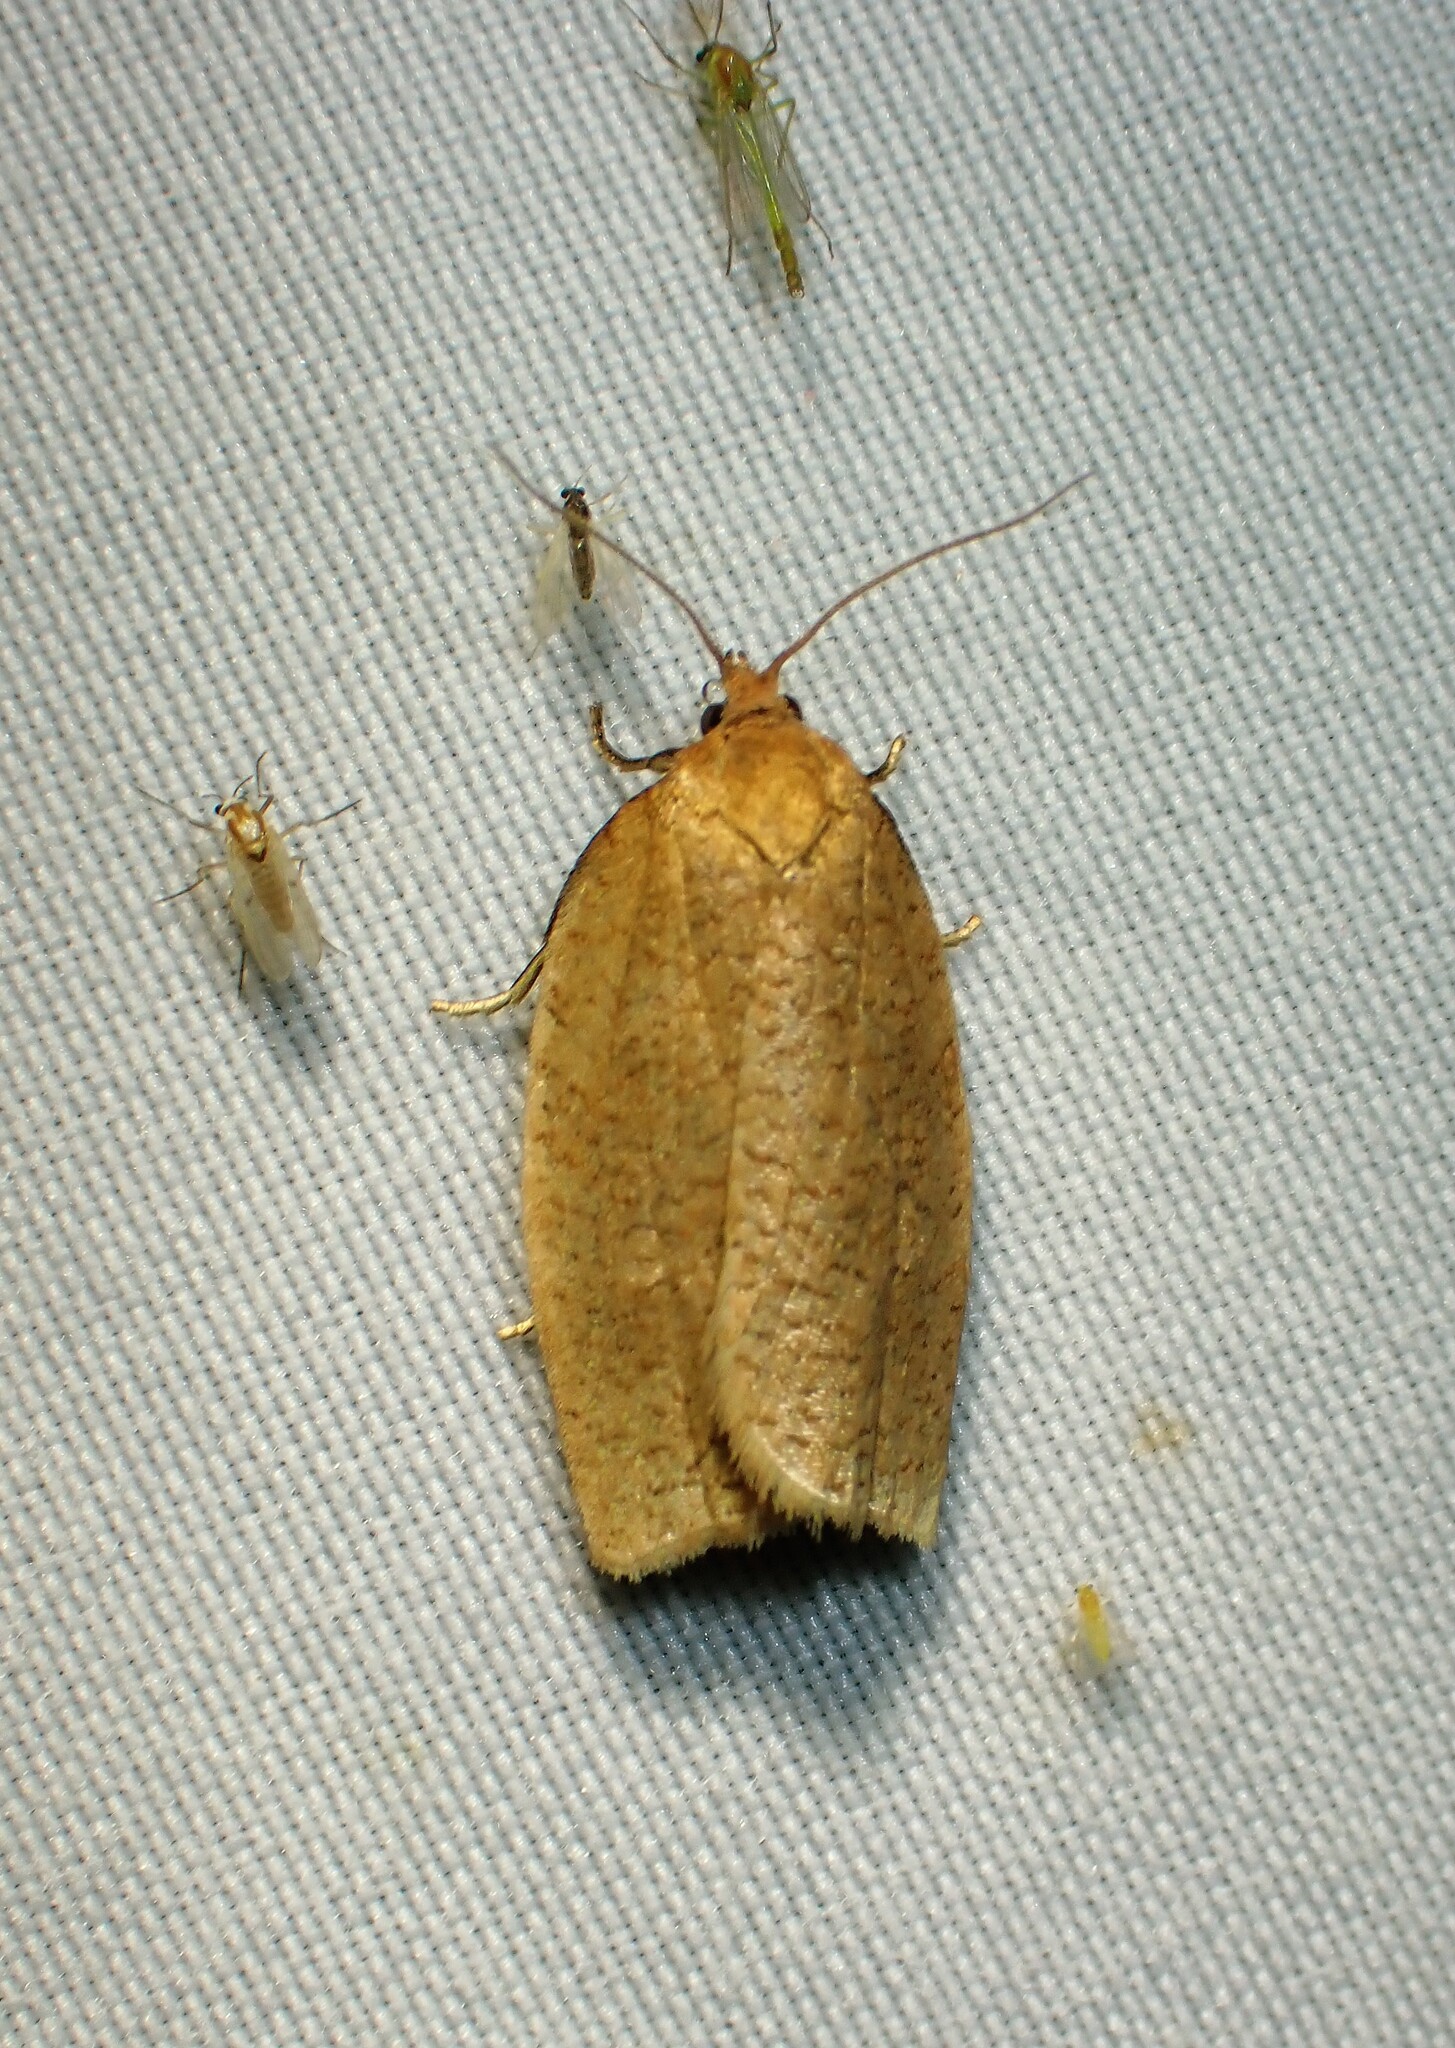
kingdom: Animalia
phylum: Arthropoda
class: Insecta
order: Lepidoptera
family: Tortricidae
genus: Aphelia
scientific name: Aphelia alleniana
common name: Allen's tortrix moth
